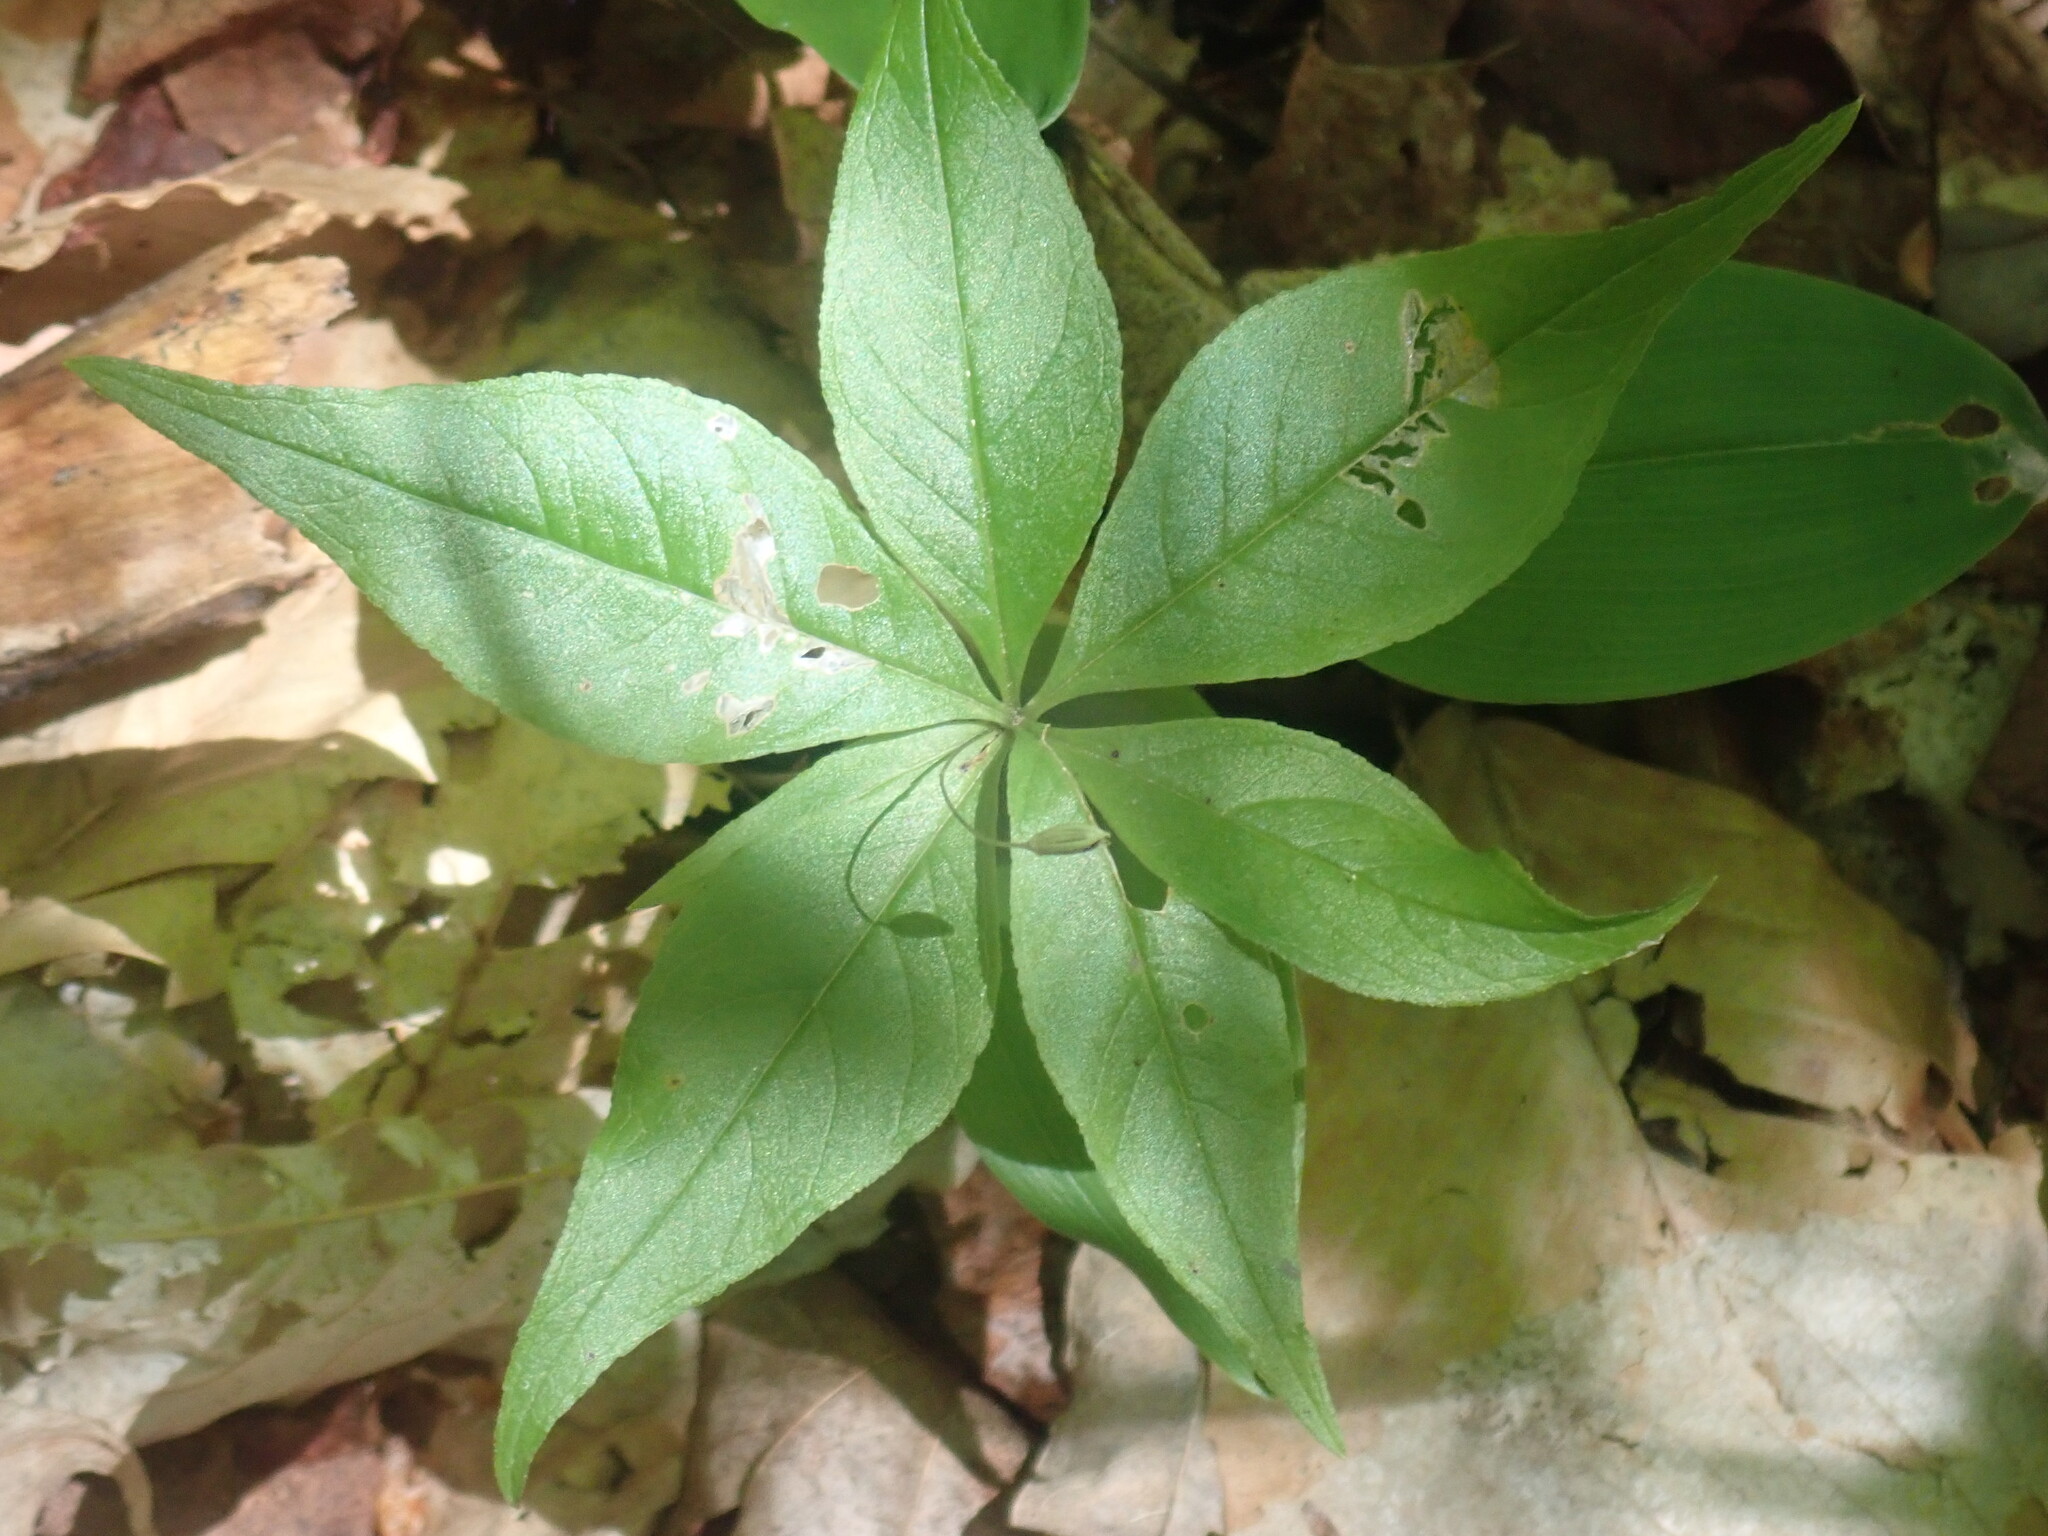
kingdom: Plantae
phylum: Tracheophyta
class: Magnoliopsida
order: Ericales
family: Primulaceae
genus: Lysimachia
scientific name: Lysimachia borealis
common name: American starflower
